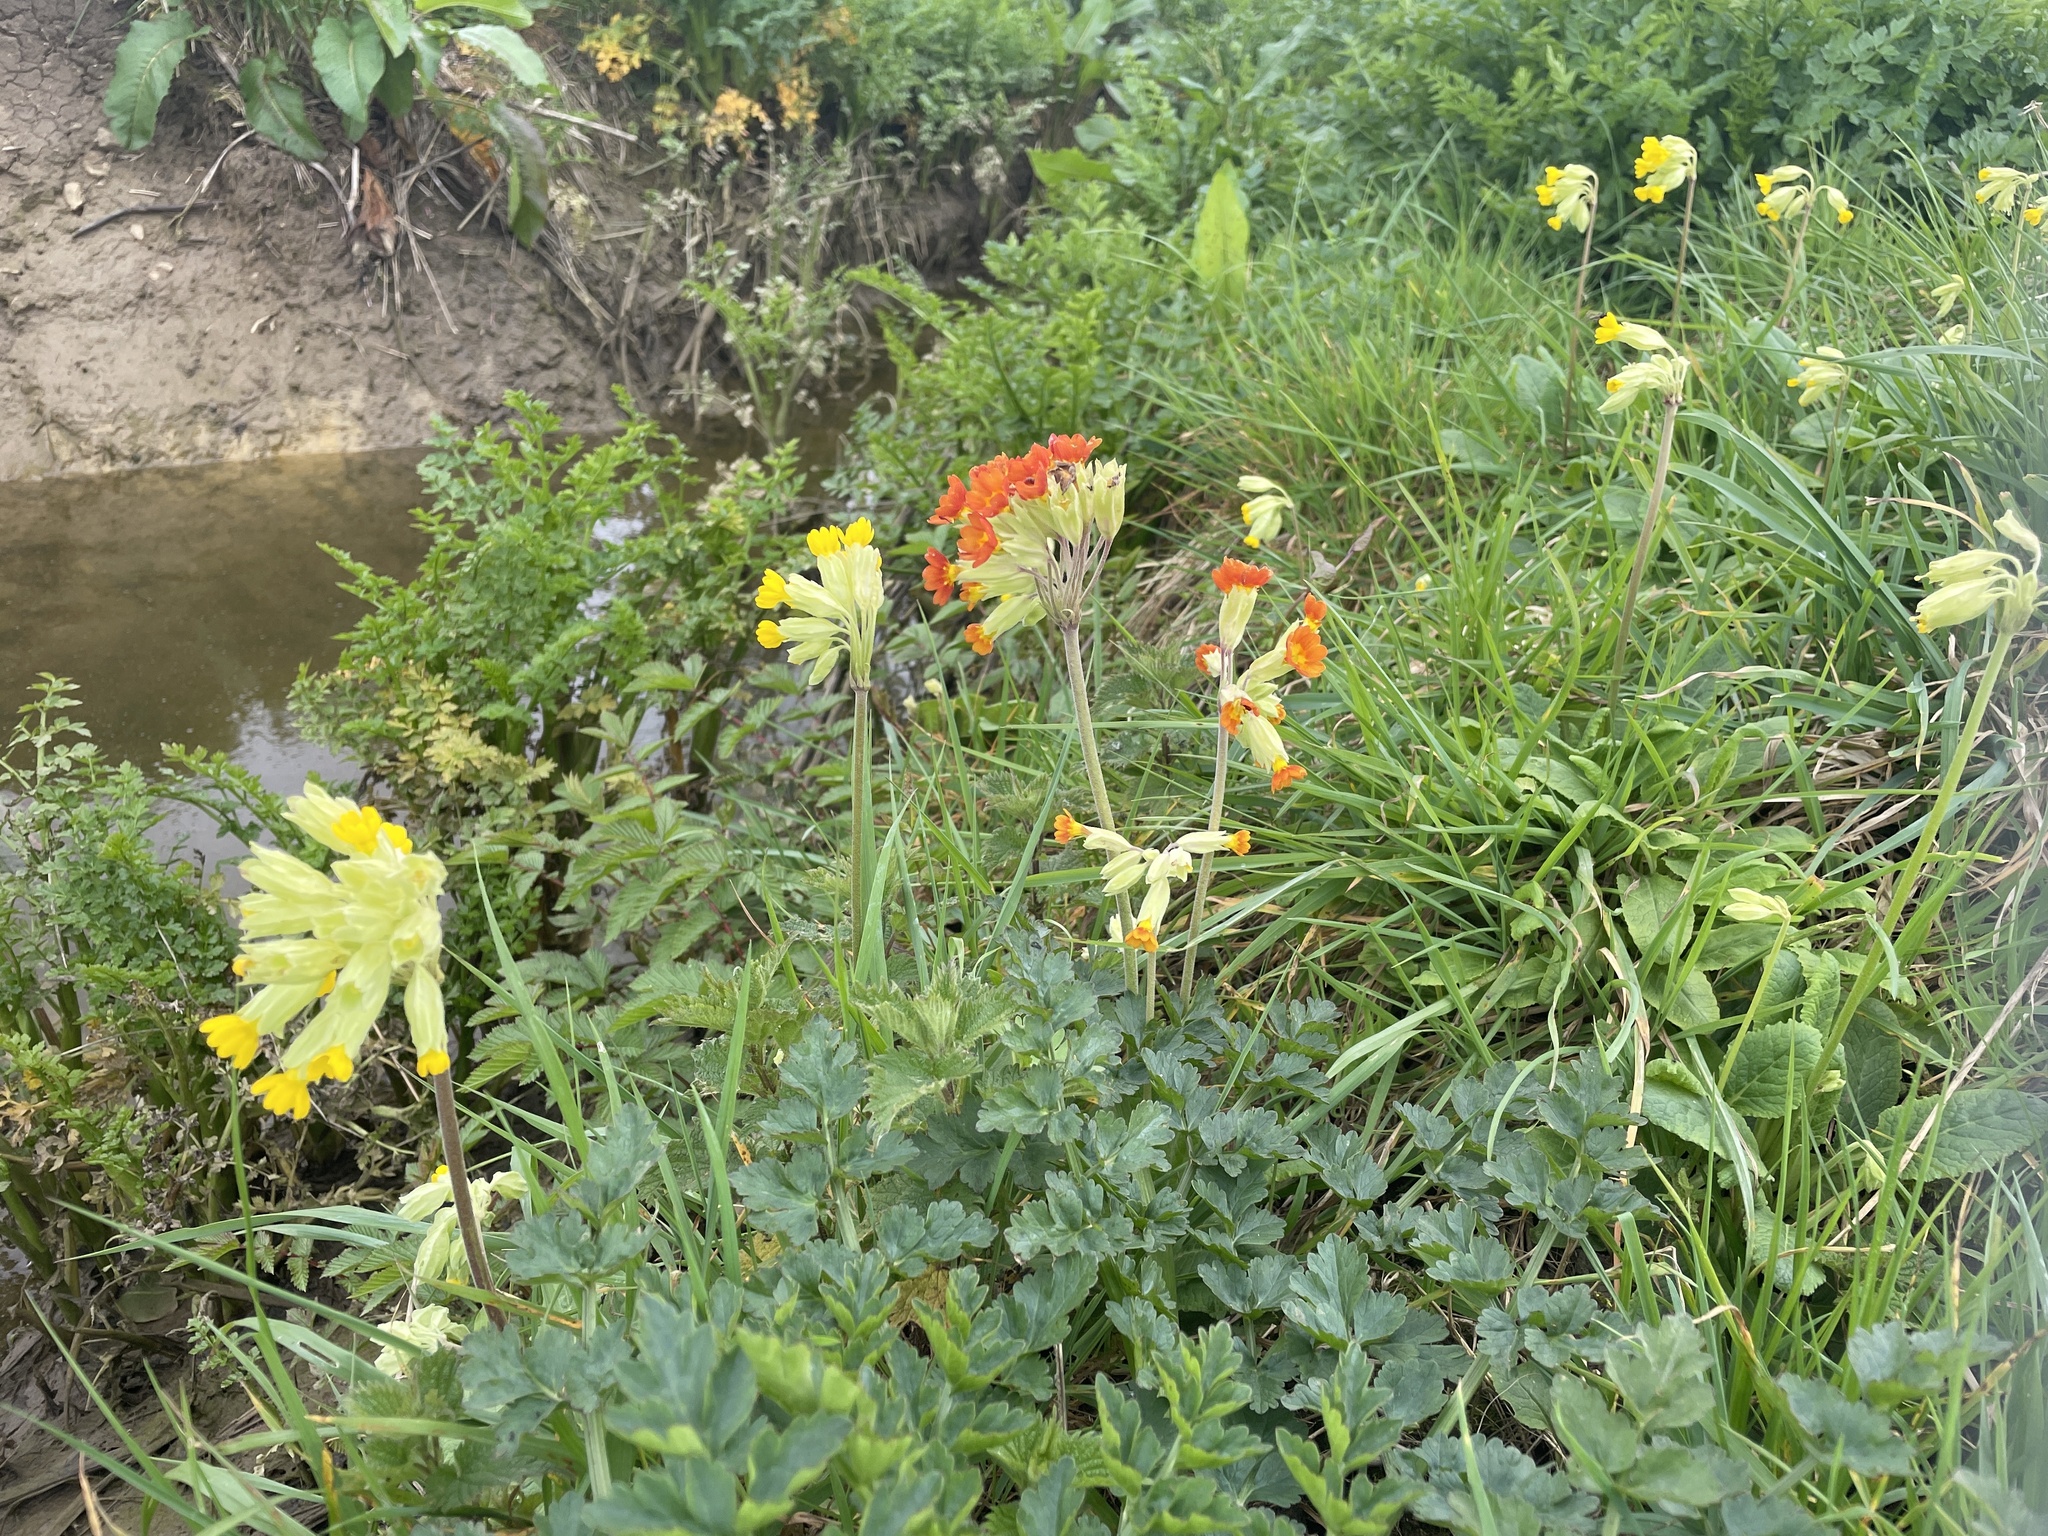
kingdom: Plantae
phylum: Tracheophyta
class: Magnoliopsida
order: Ericales
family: Primulaceae
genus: Primula
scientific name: Primula veris
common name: Cowslip
